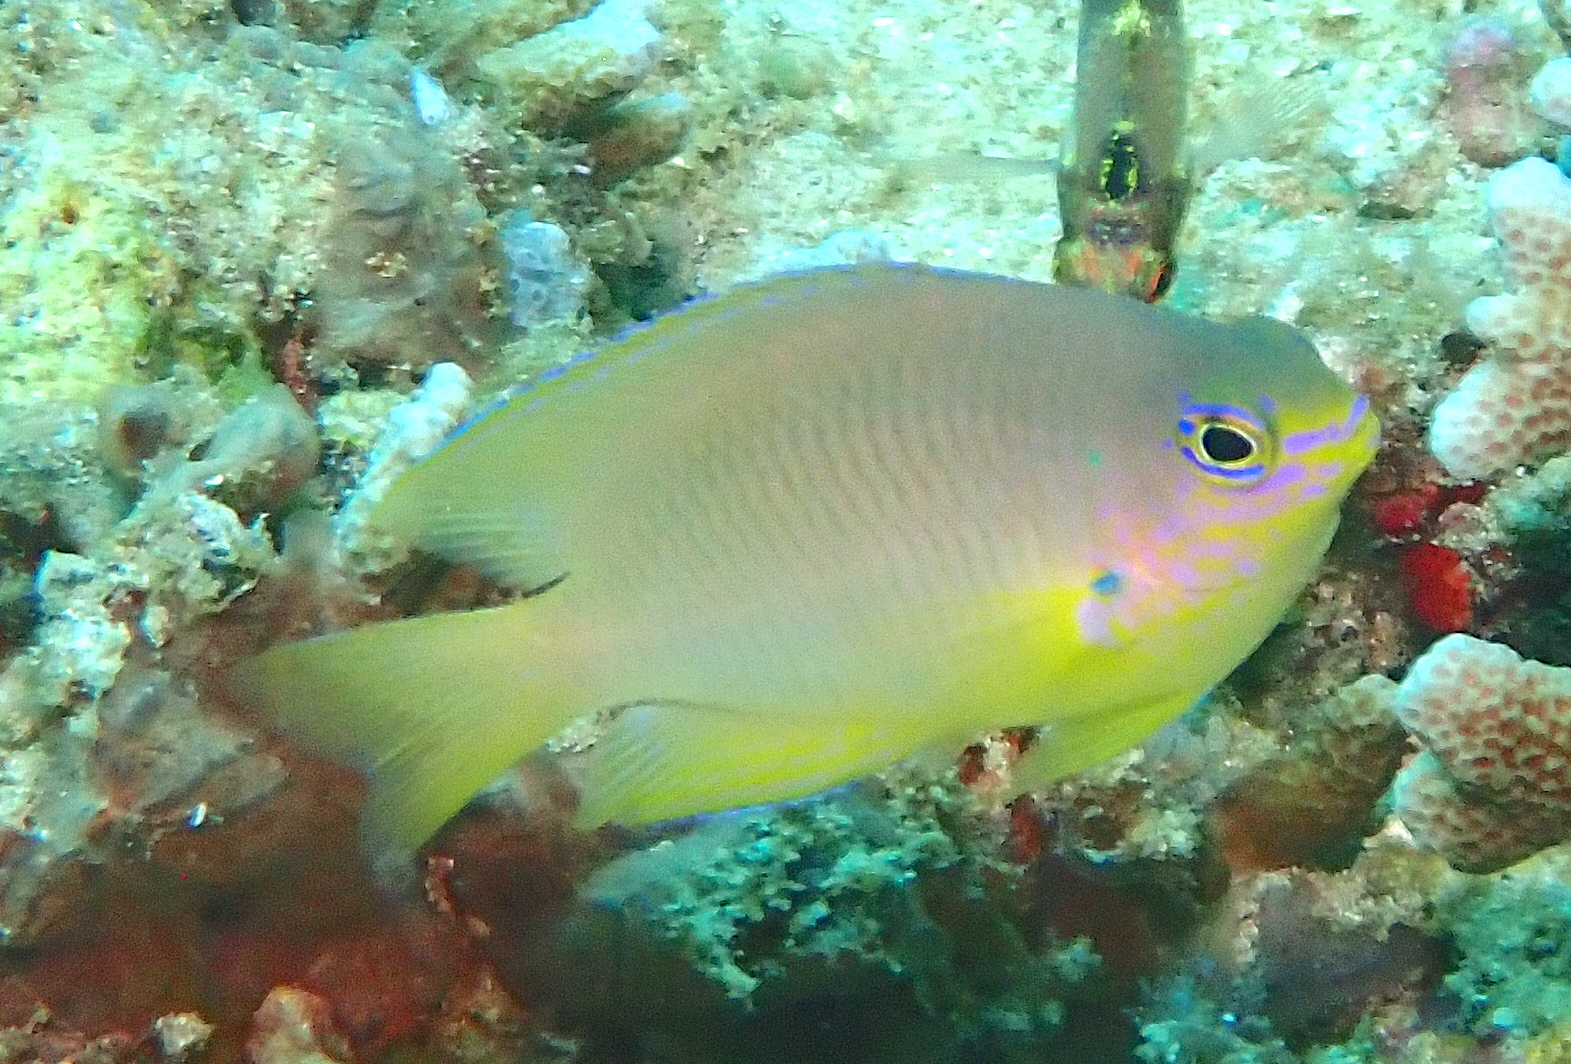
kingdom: Animalia
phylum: Chordata
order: Perciformes
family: Pomacentridae
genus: Pomacentrus
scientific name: Pomacentrus amboinensis
